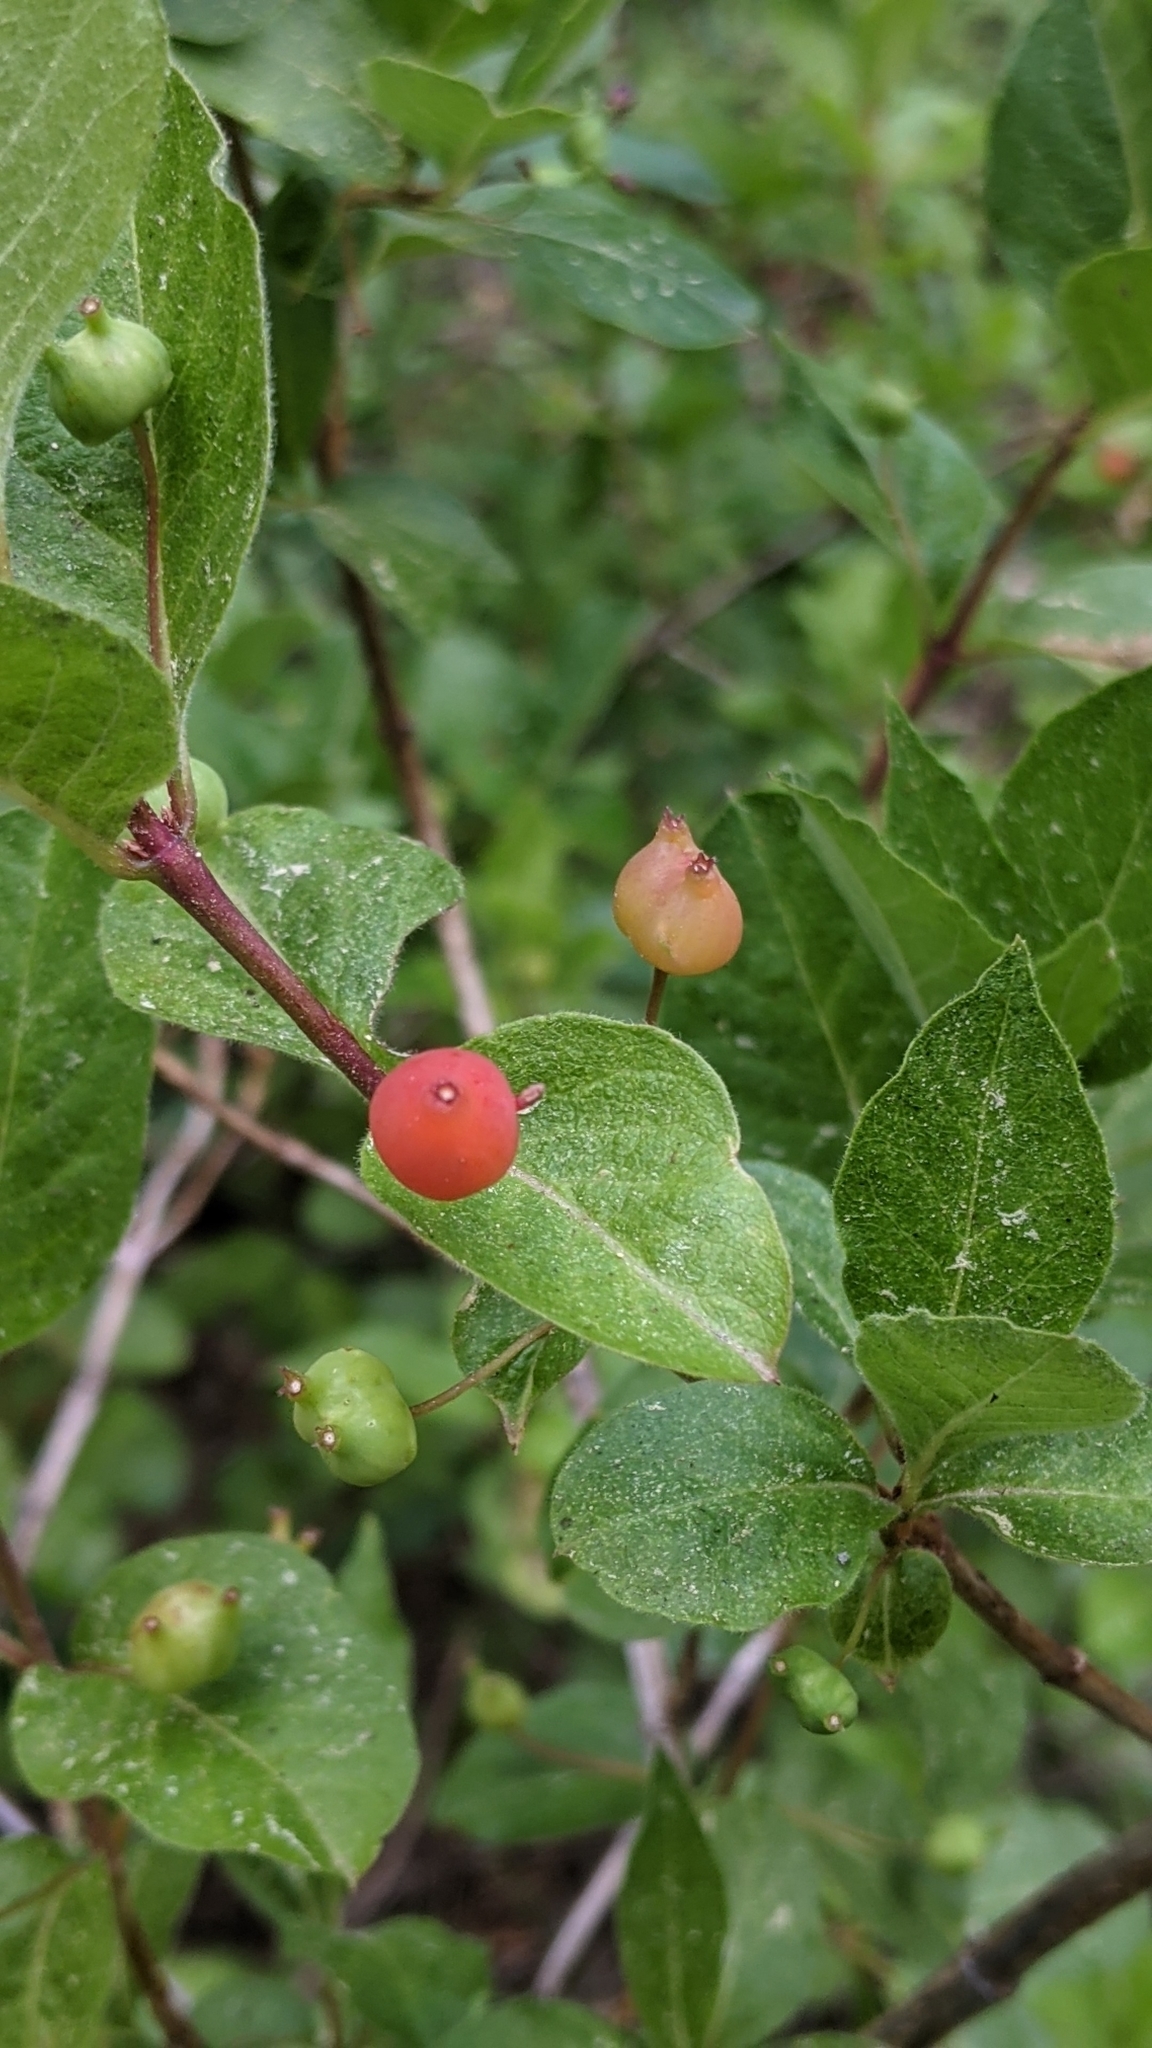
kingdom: Plantae
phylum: Tracheophyta
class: Magnoliopsida
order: Dipsacales
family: Caprifoliaceae
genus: Lonicera
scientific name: Lonicera conjugialis
